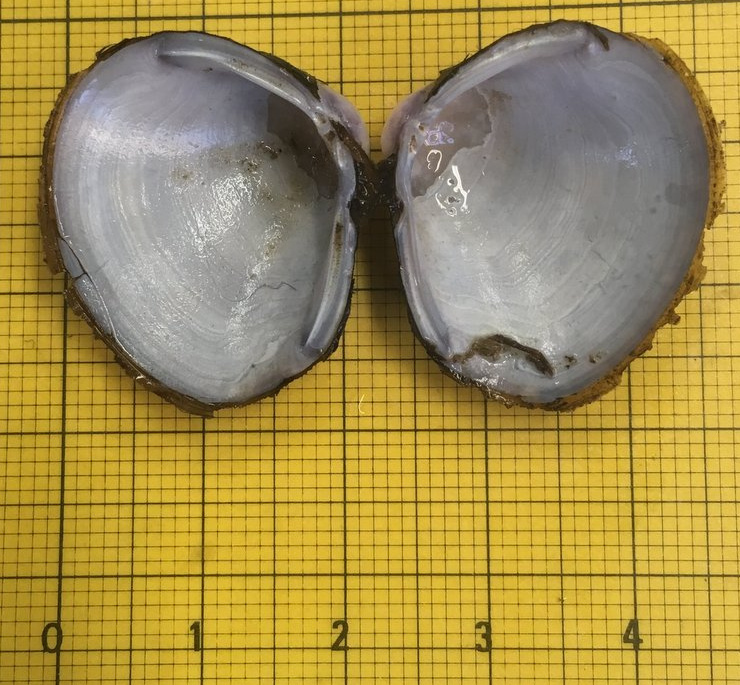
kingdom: Animalia
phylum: Mollusca
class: Bivalvia
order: Venerida
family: Cyrenidae
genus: Corbicula
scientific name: Corbicula fluminea
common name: Asian clam
